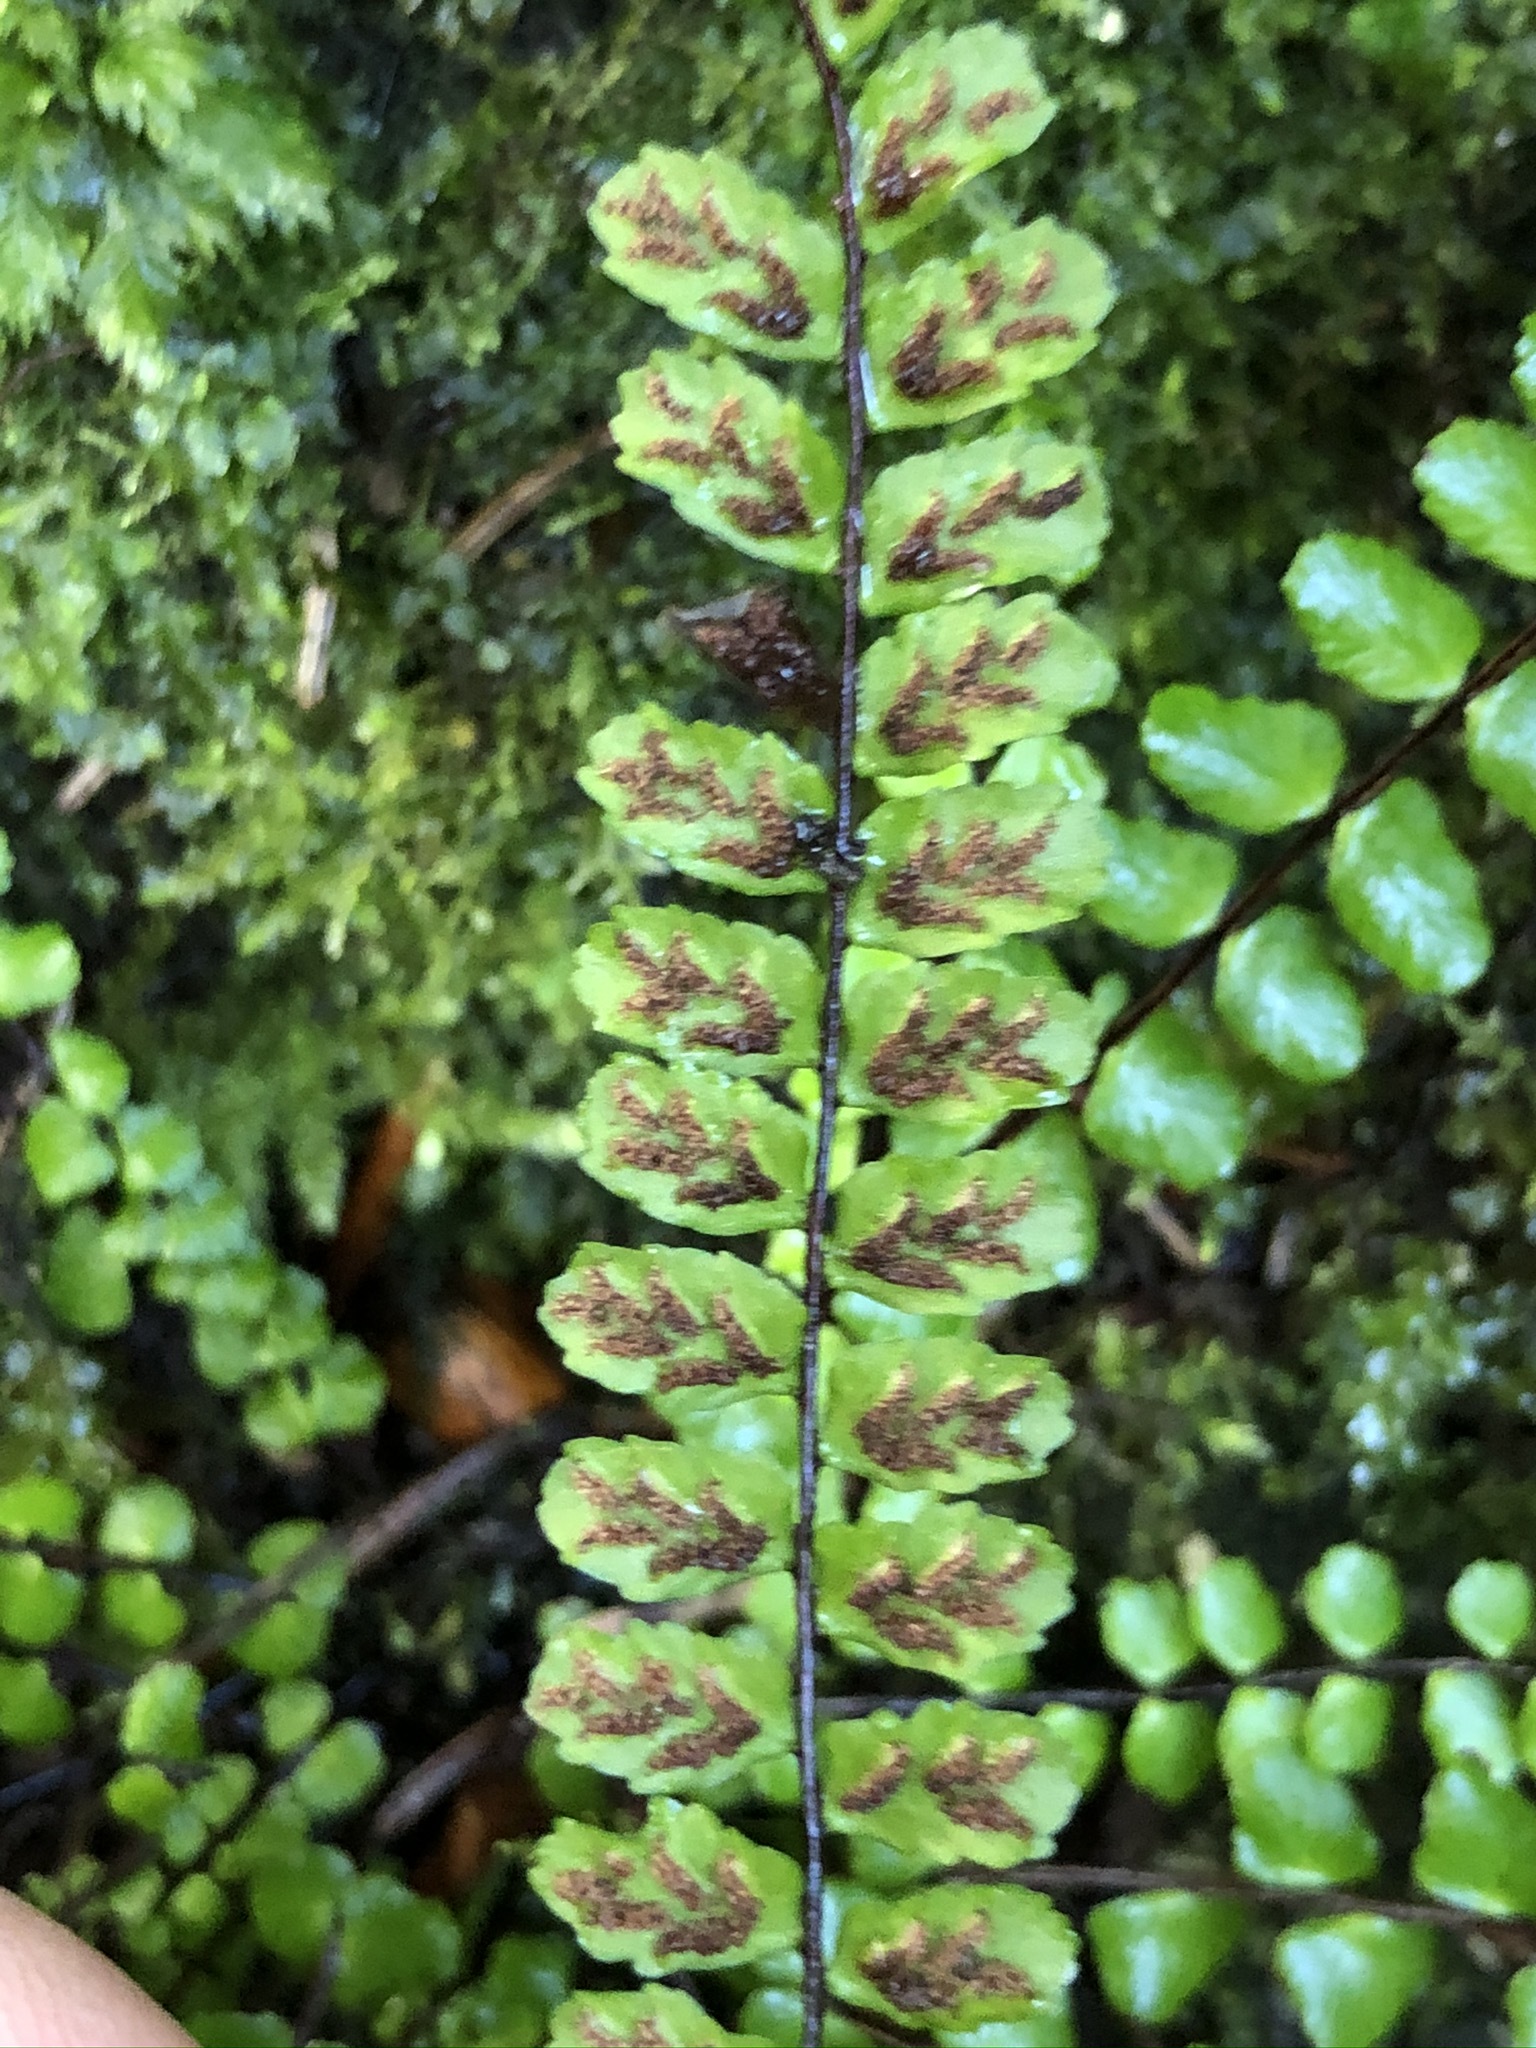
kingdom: Plantae
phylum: Tracheophyta
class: Polypodiopsida
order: Polypodiales
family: Aspleniaceae
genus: Asplenium
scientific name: Asplenium trichomanes
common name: Maidenhair spleenwort
